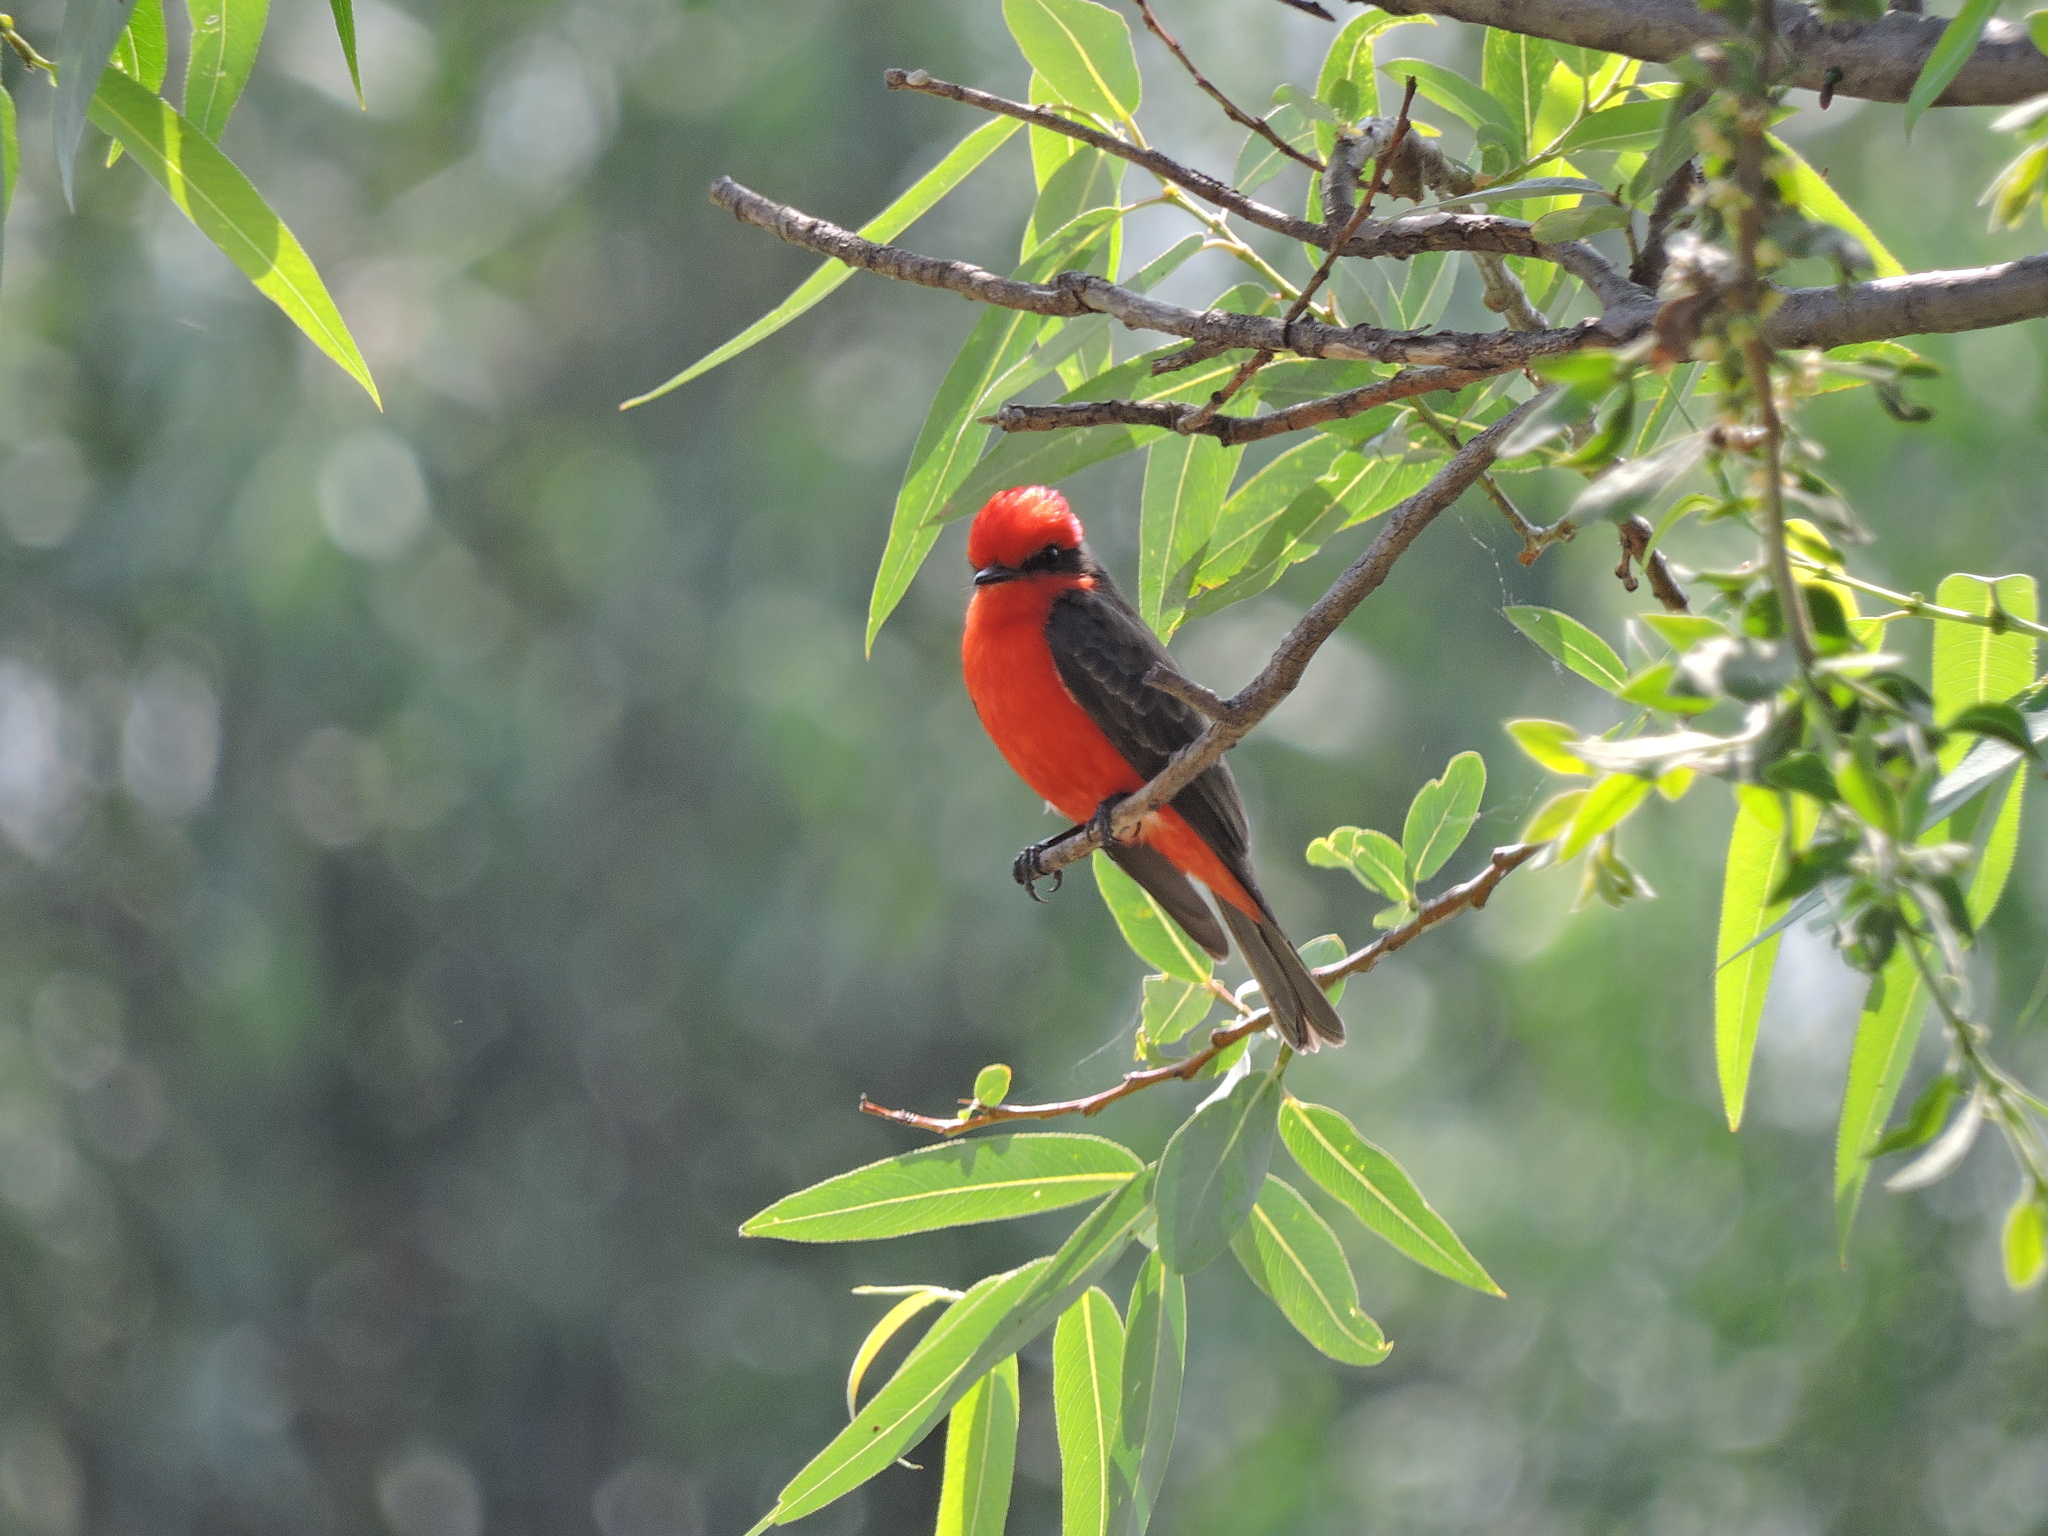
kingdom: Animalia
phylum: Chordata
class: Aves
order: Passeriformes
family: Tyrannidae
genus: Pyrocephalus
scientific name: Pyrocephalus rubinus
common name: Vermilion flycatcher
